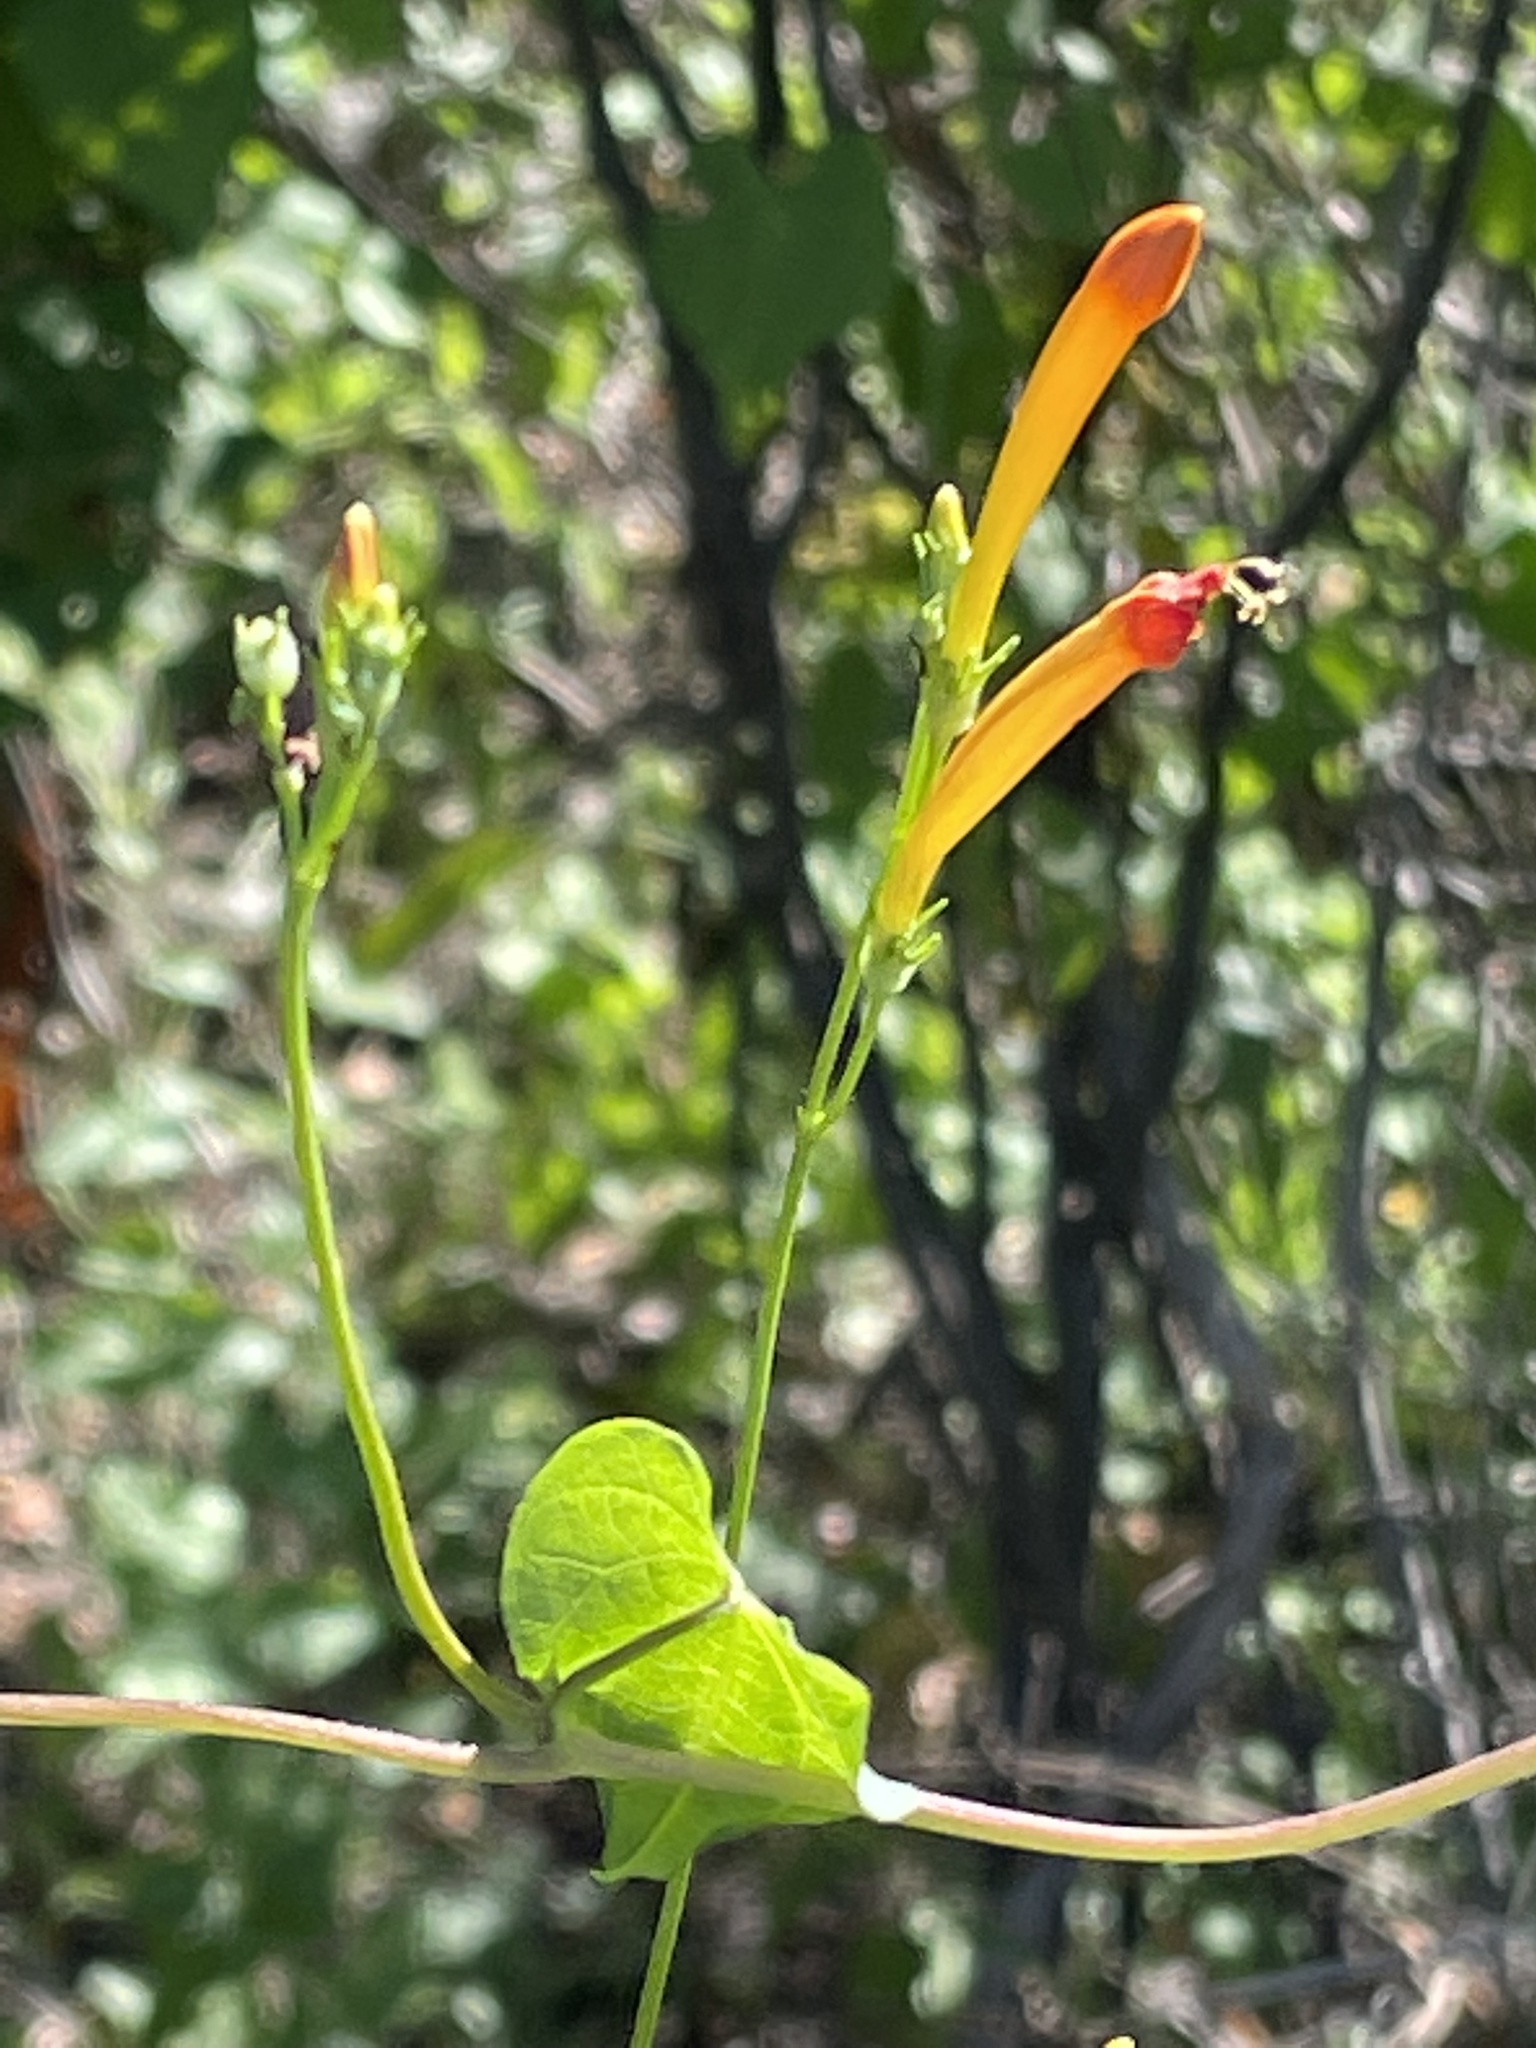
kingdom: Plantae
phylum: Tracheophyta
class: Magnoliopsida
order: Solanales
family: Convolvulaceae
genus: Ipomoea
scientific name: Ipomoea hederifolia
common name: Ivy-leaf morning-glory
